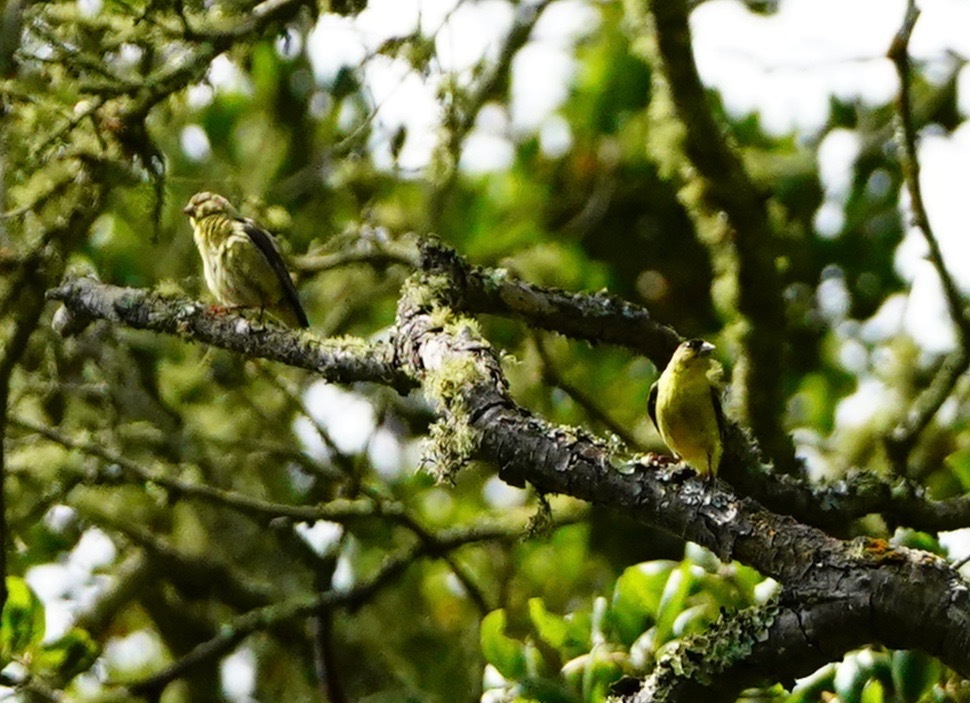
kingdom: Animalia
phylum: Chordata
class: Aves
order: Passeriformes
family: Fringillidae
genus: Spinus
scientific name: Spinus psaltria
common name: Lesser goldfinch
